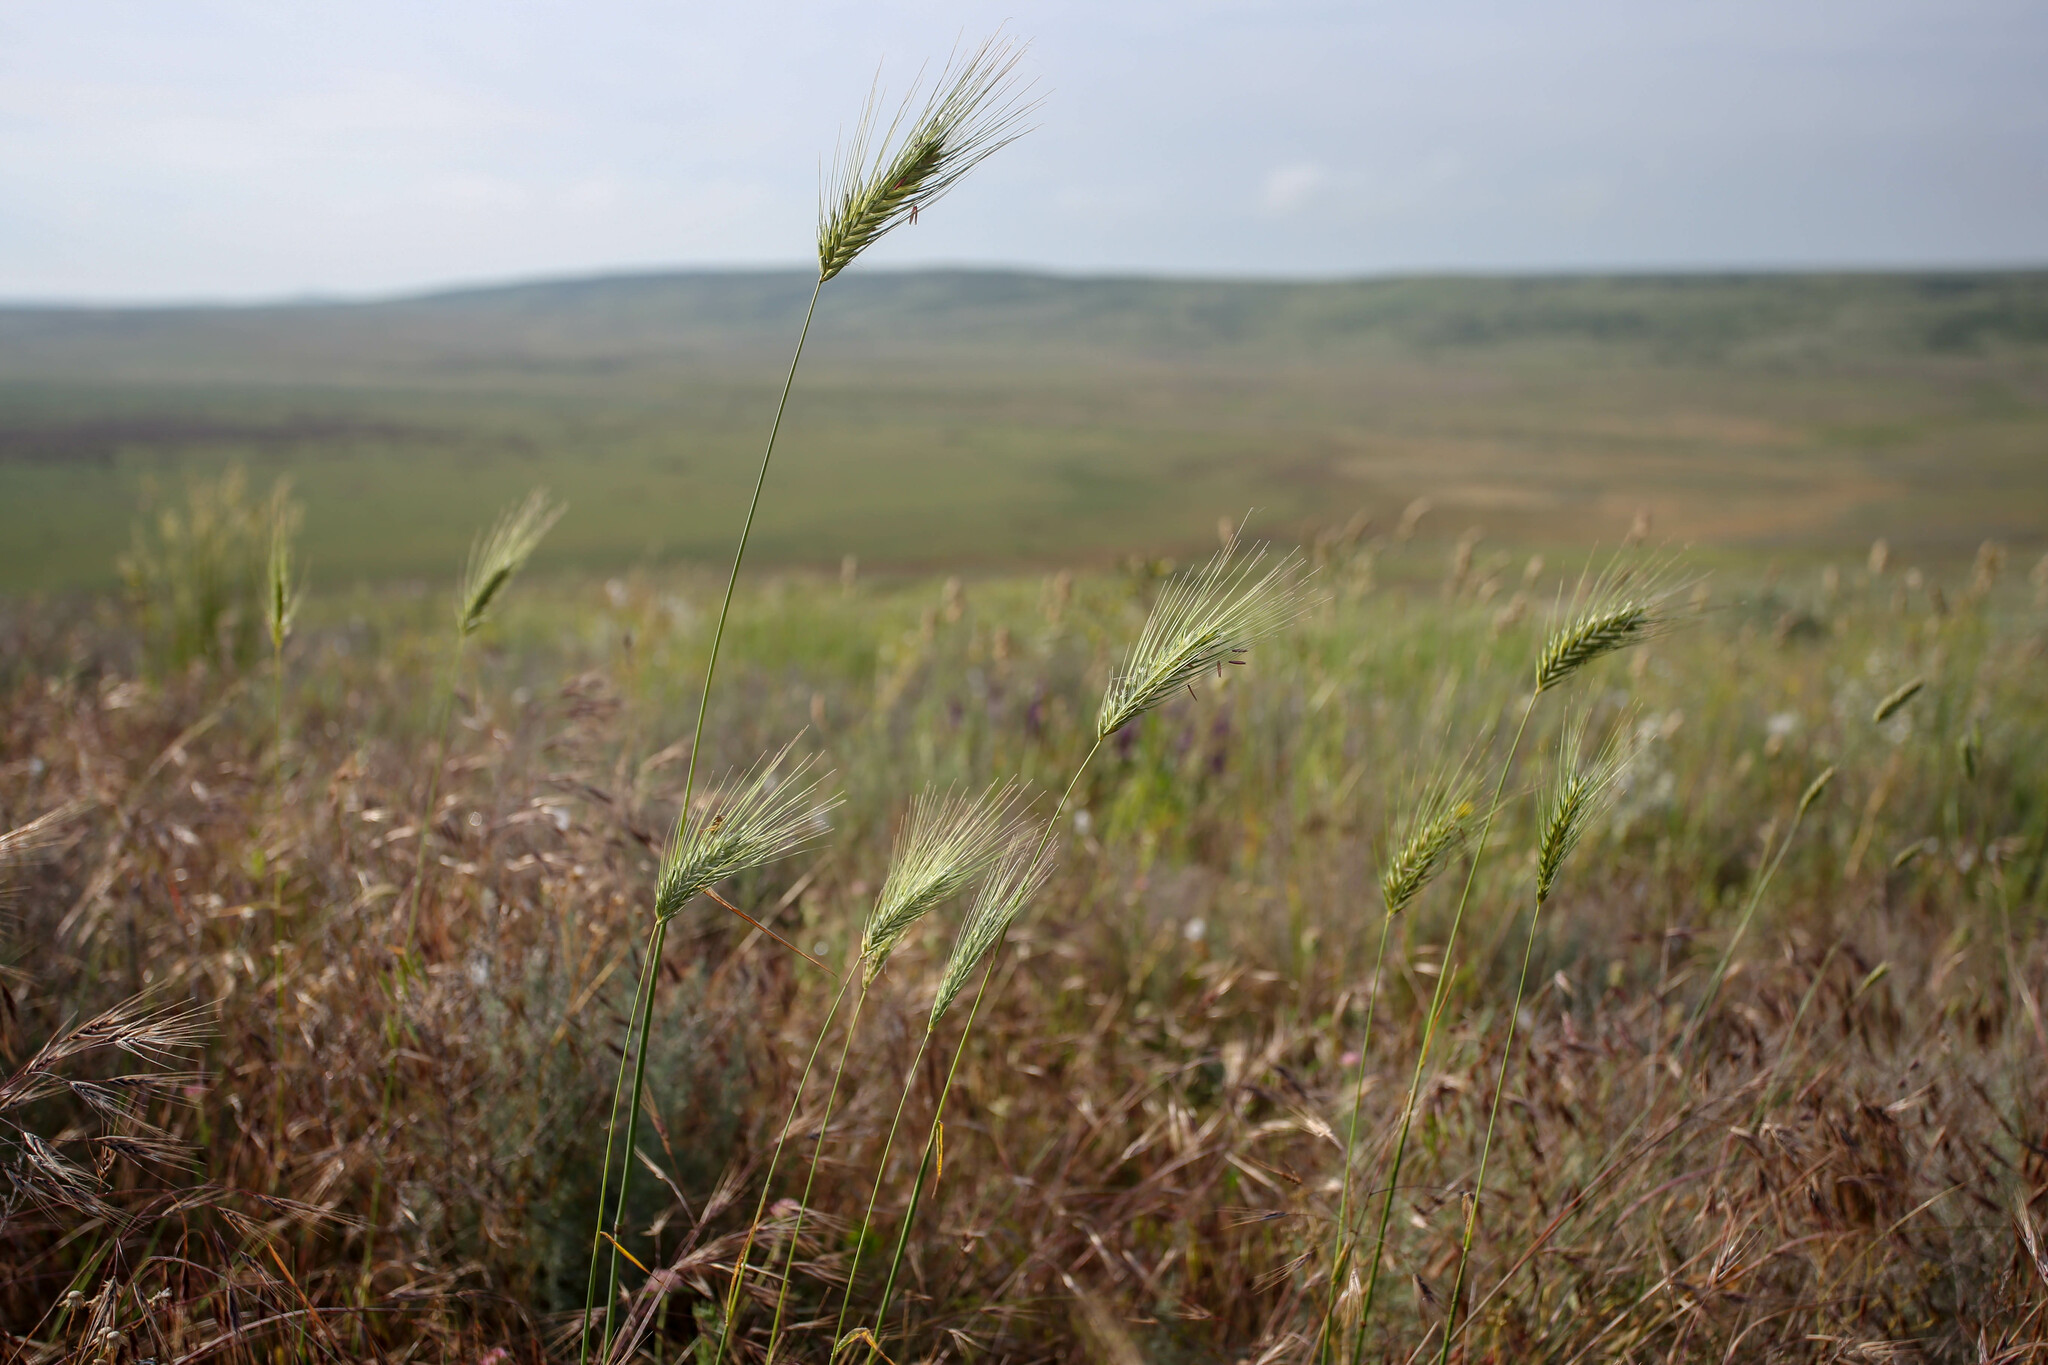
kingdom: Plantae
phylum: Tracheophyta
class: Liliopsida
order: Poales
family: Poaceae
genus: Dasypyrum
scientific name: Dasypyrum villosum
